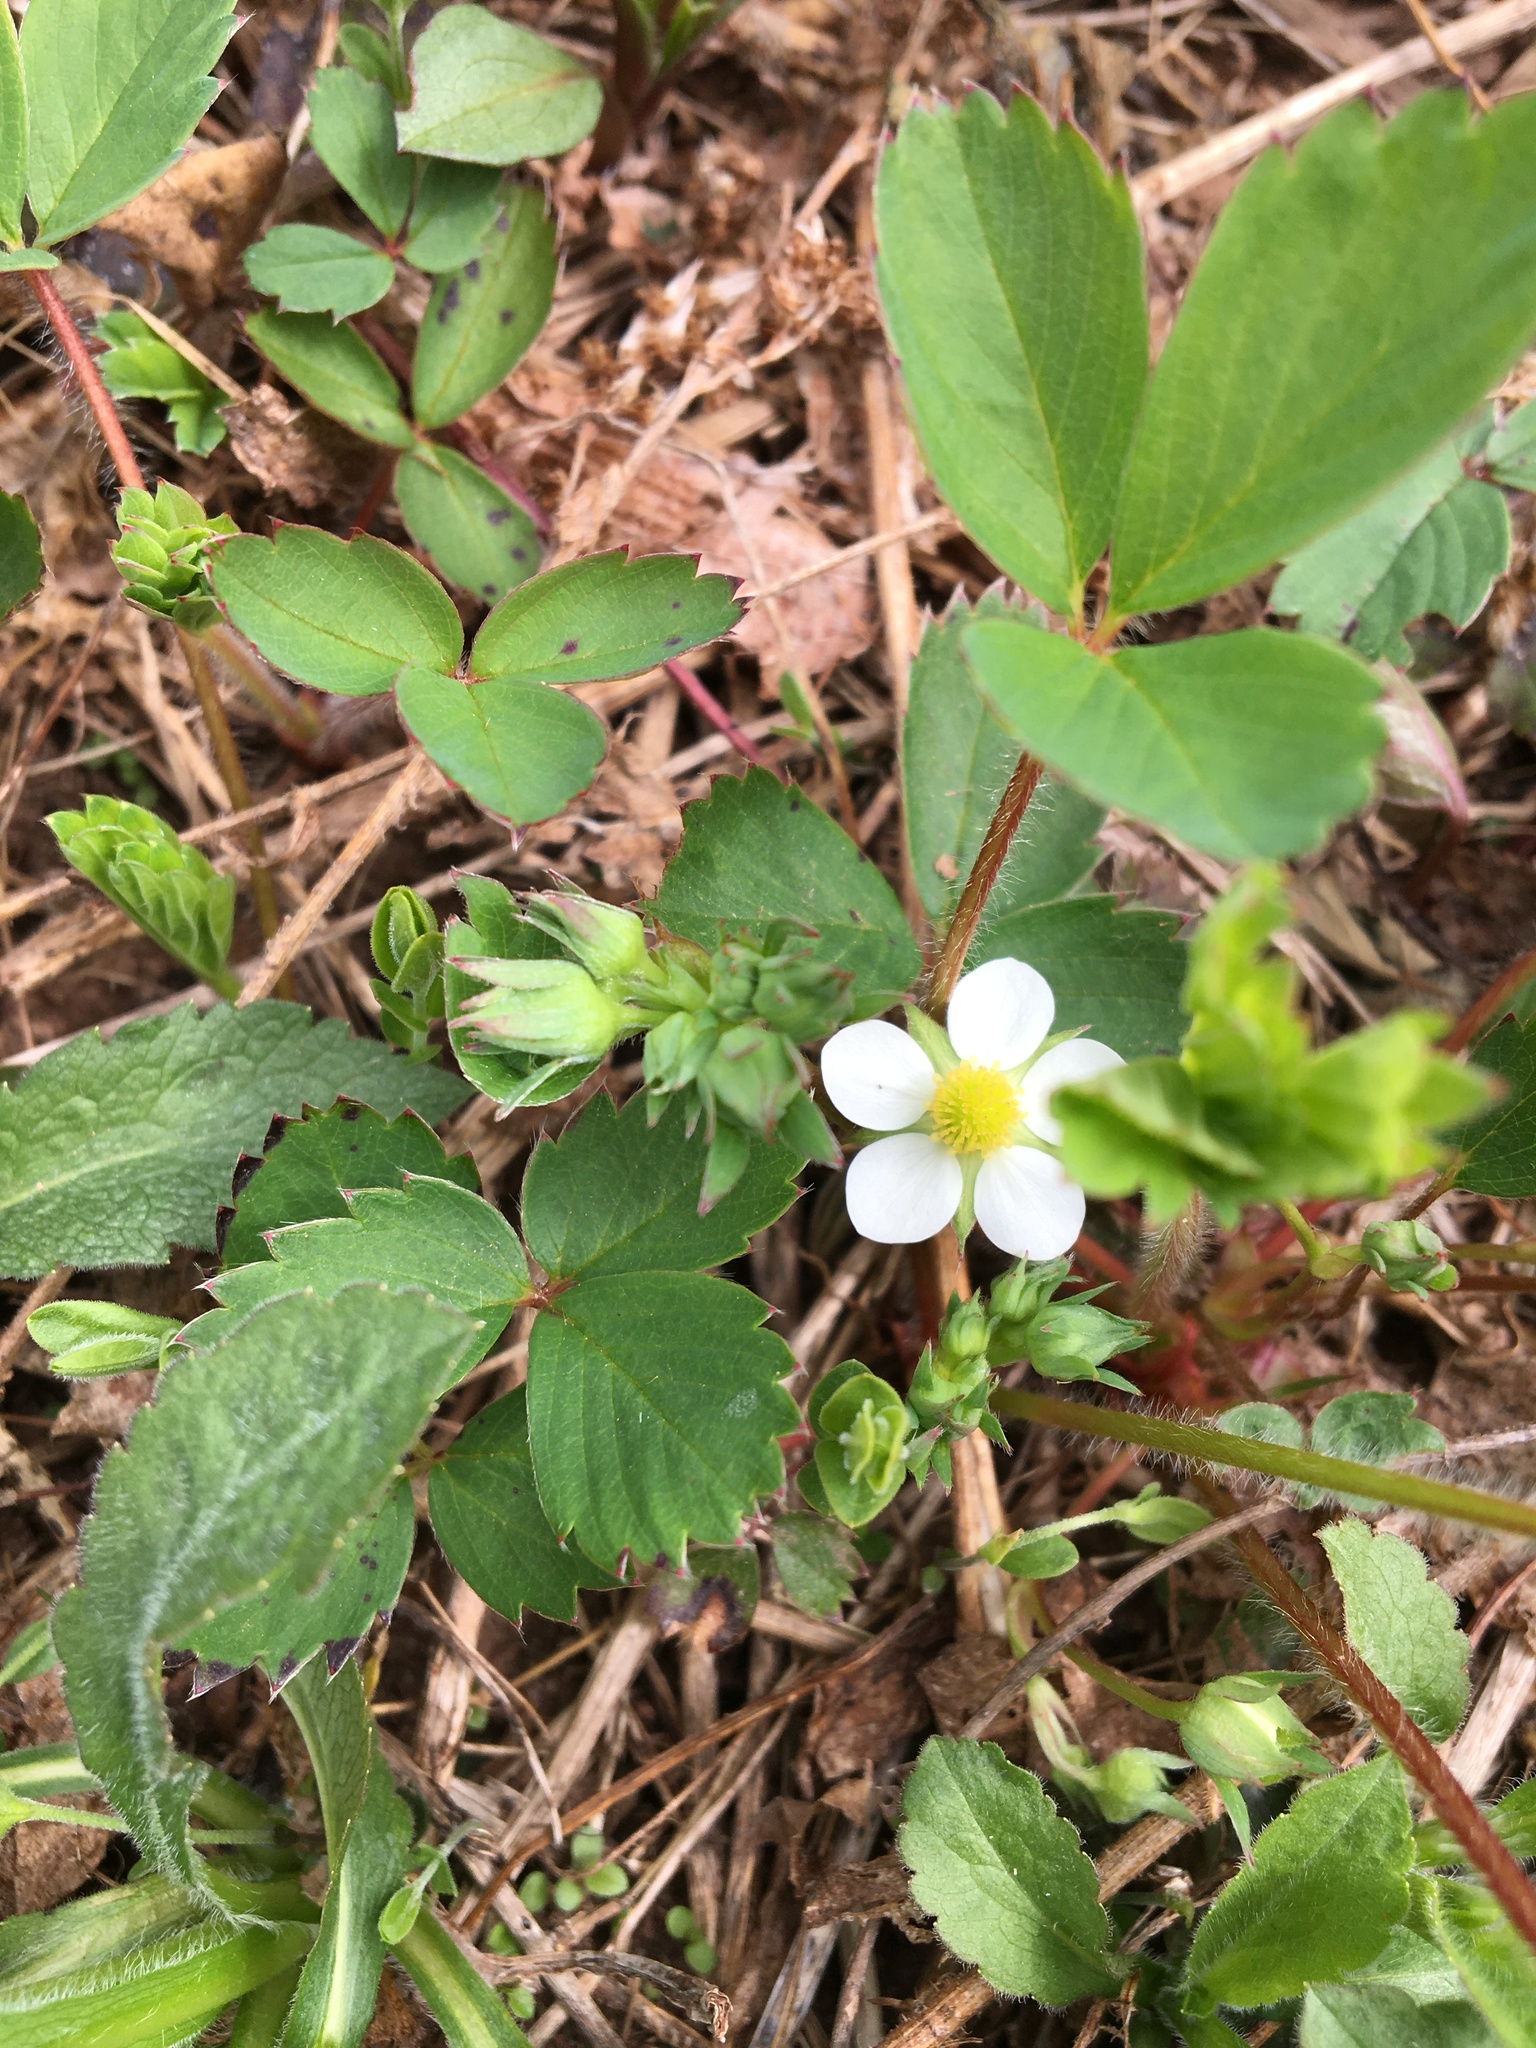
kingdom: Plantae
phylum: Tracheophyta
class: Magnoliopsida
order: Rosales
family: Rosaceae
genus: Fragaria
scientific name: Fragaria virginiana
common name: Thickleaved wild strawberry
